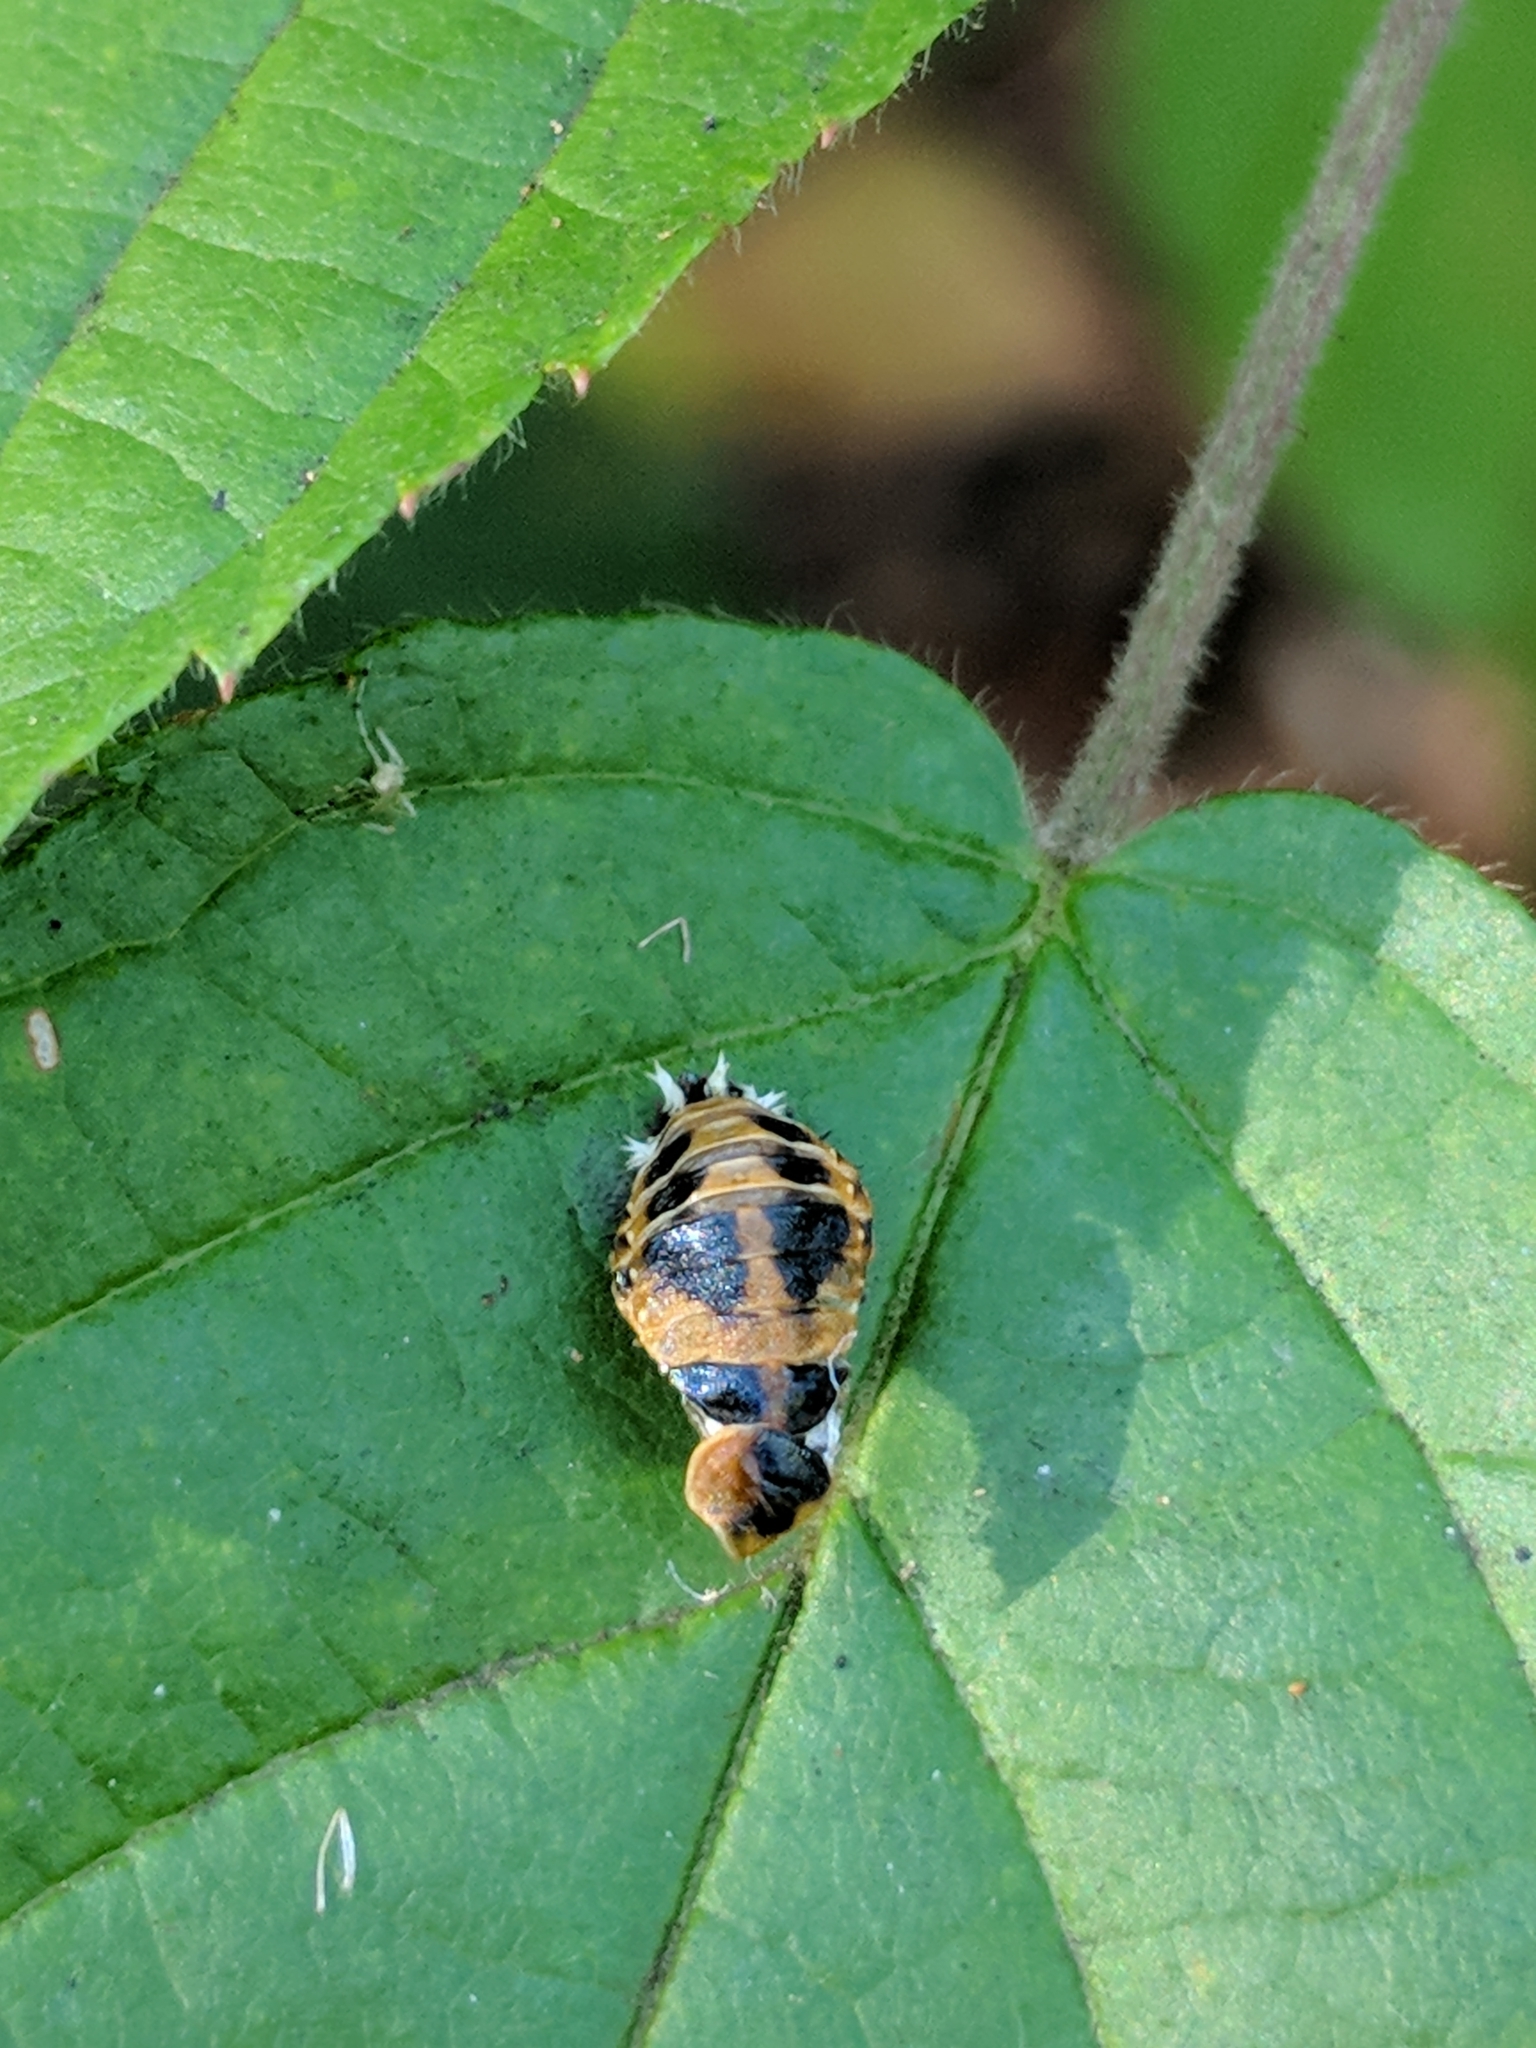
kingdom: Animalia
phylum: Arthropoda
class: Insecta
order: Coleoptera
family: Coccinellidae
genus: Harmonia
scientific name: Harmonia axyridis
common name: Harlequin ladybird
